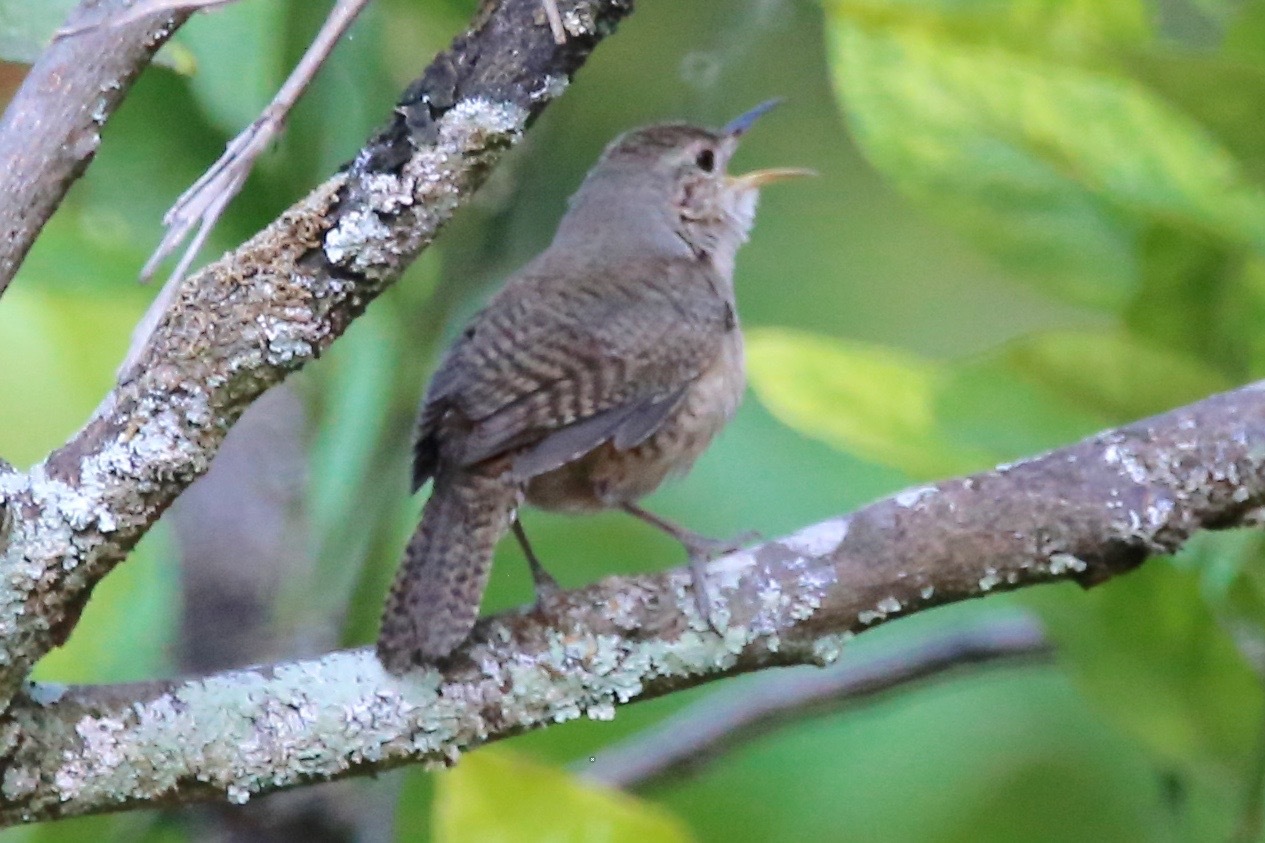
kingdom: Animalia
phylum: Chordata
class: Aves
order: Passeriformes
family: Troglodytidae
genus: Troglodytes
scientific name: Troglodytes aedon
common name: House wren
